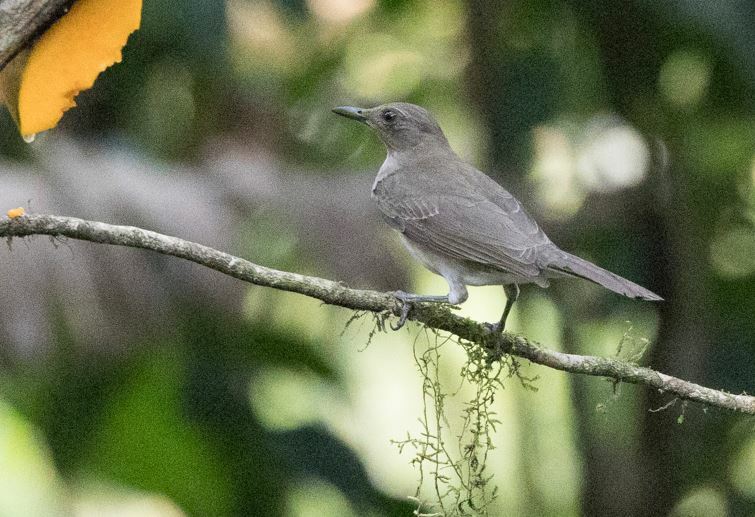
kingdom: Animalia
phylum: Chordata
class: Aves
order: Passeriformes
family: Turdidae
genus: Turdus
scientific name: Turdus ignobilis
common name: Black-billed thrush
